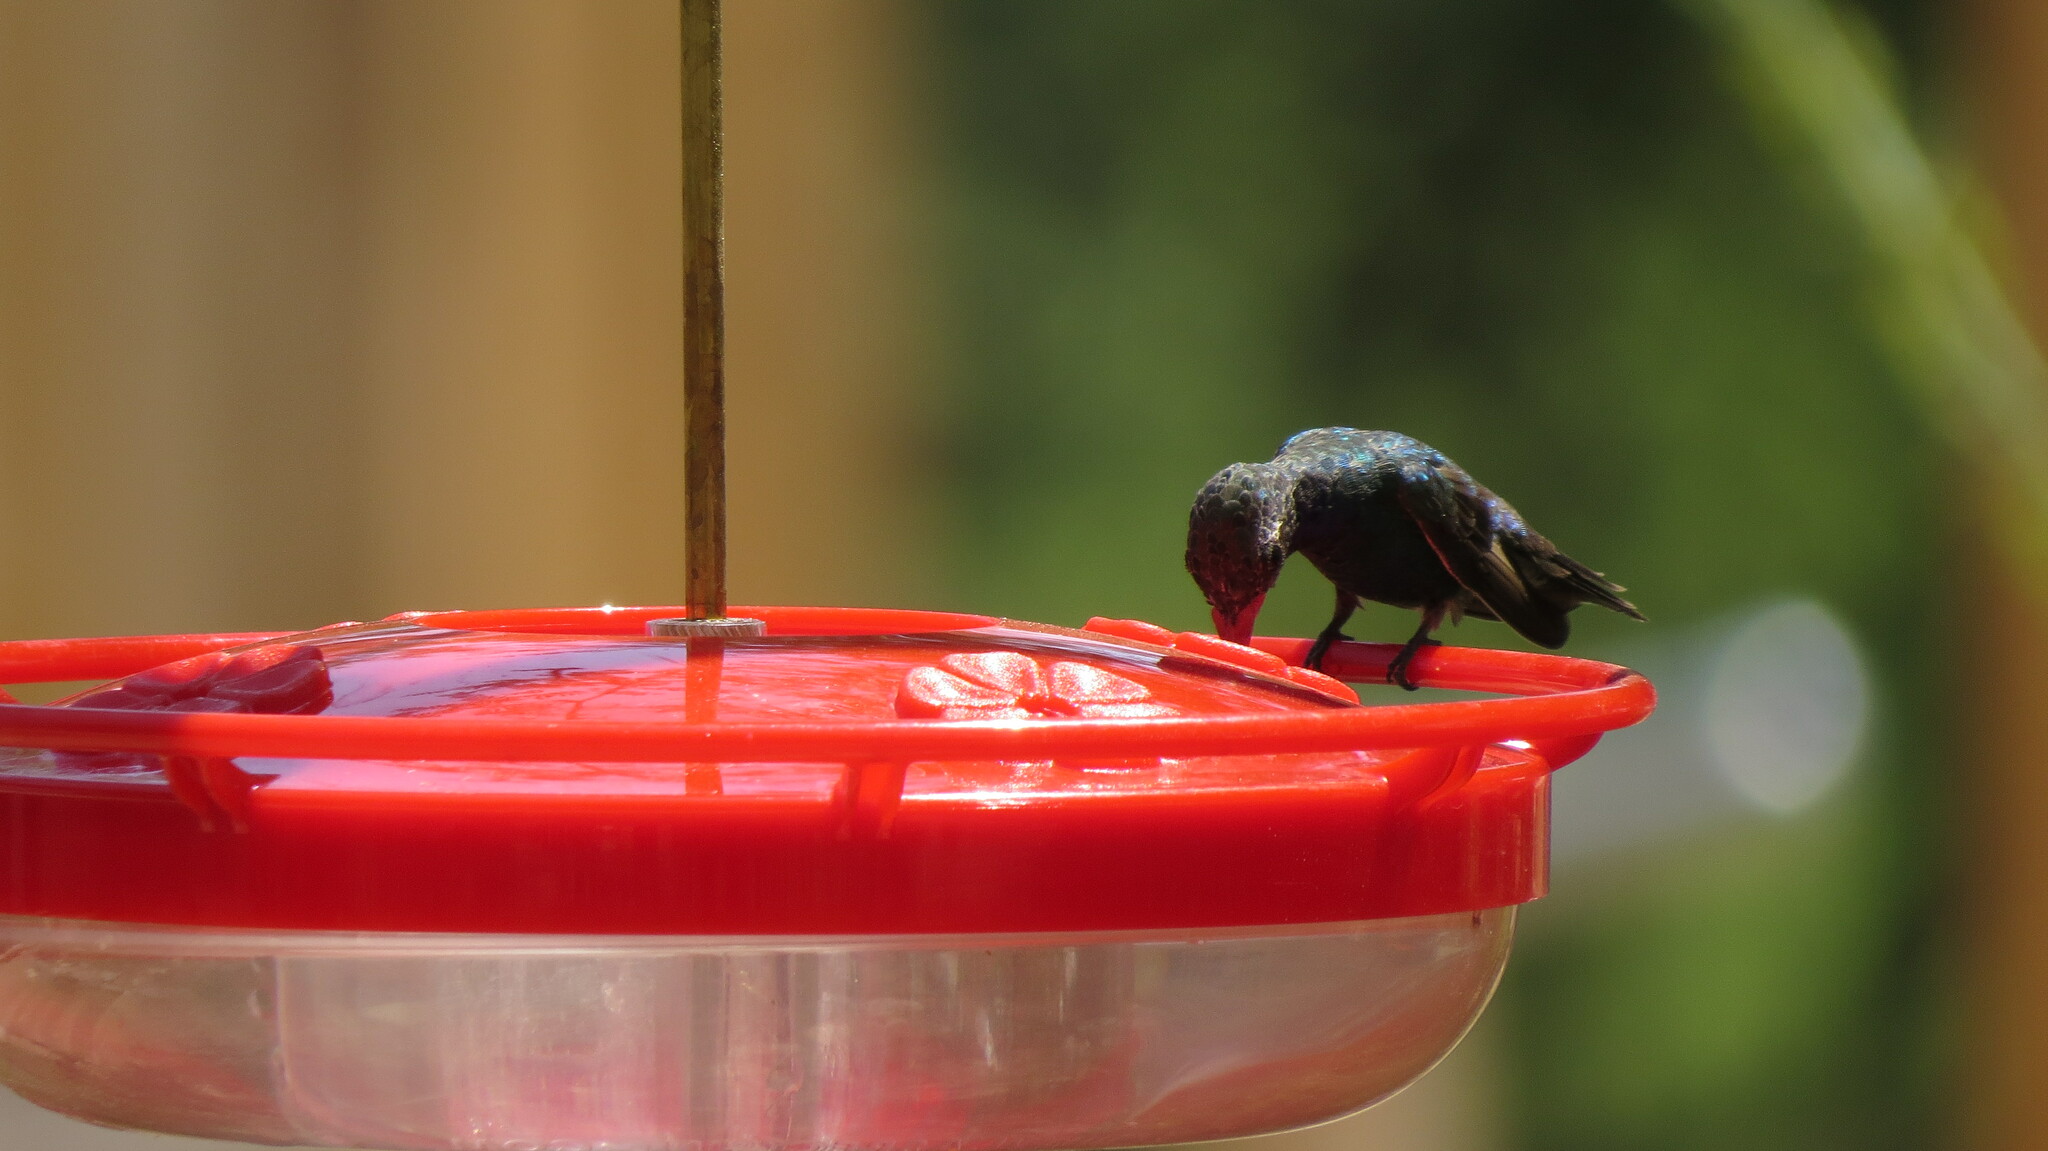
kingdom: Animalia
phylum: Chordata
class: Aves
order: Apodiformes
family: Trochilidae
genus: Cynanthus
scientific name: Cynanthus latirostris
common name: Broad-billed hummingbird
